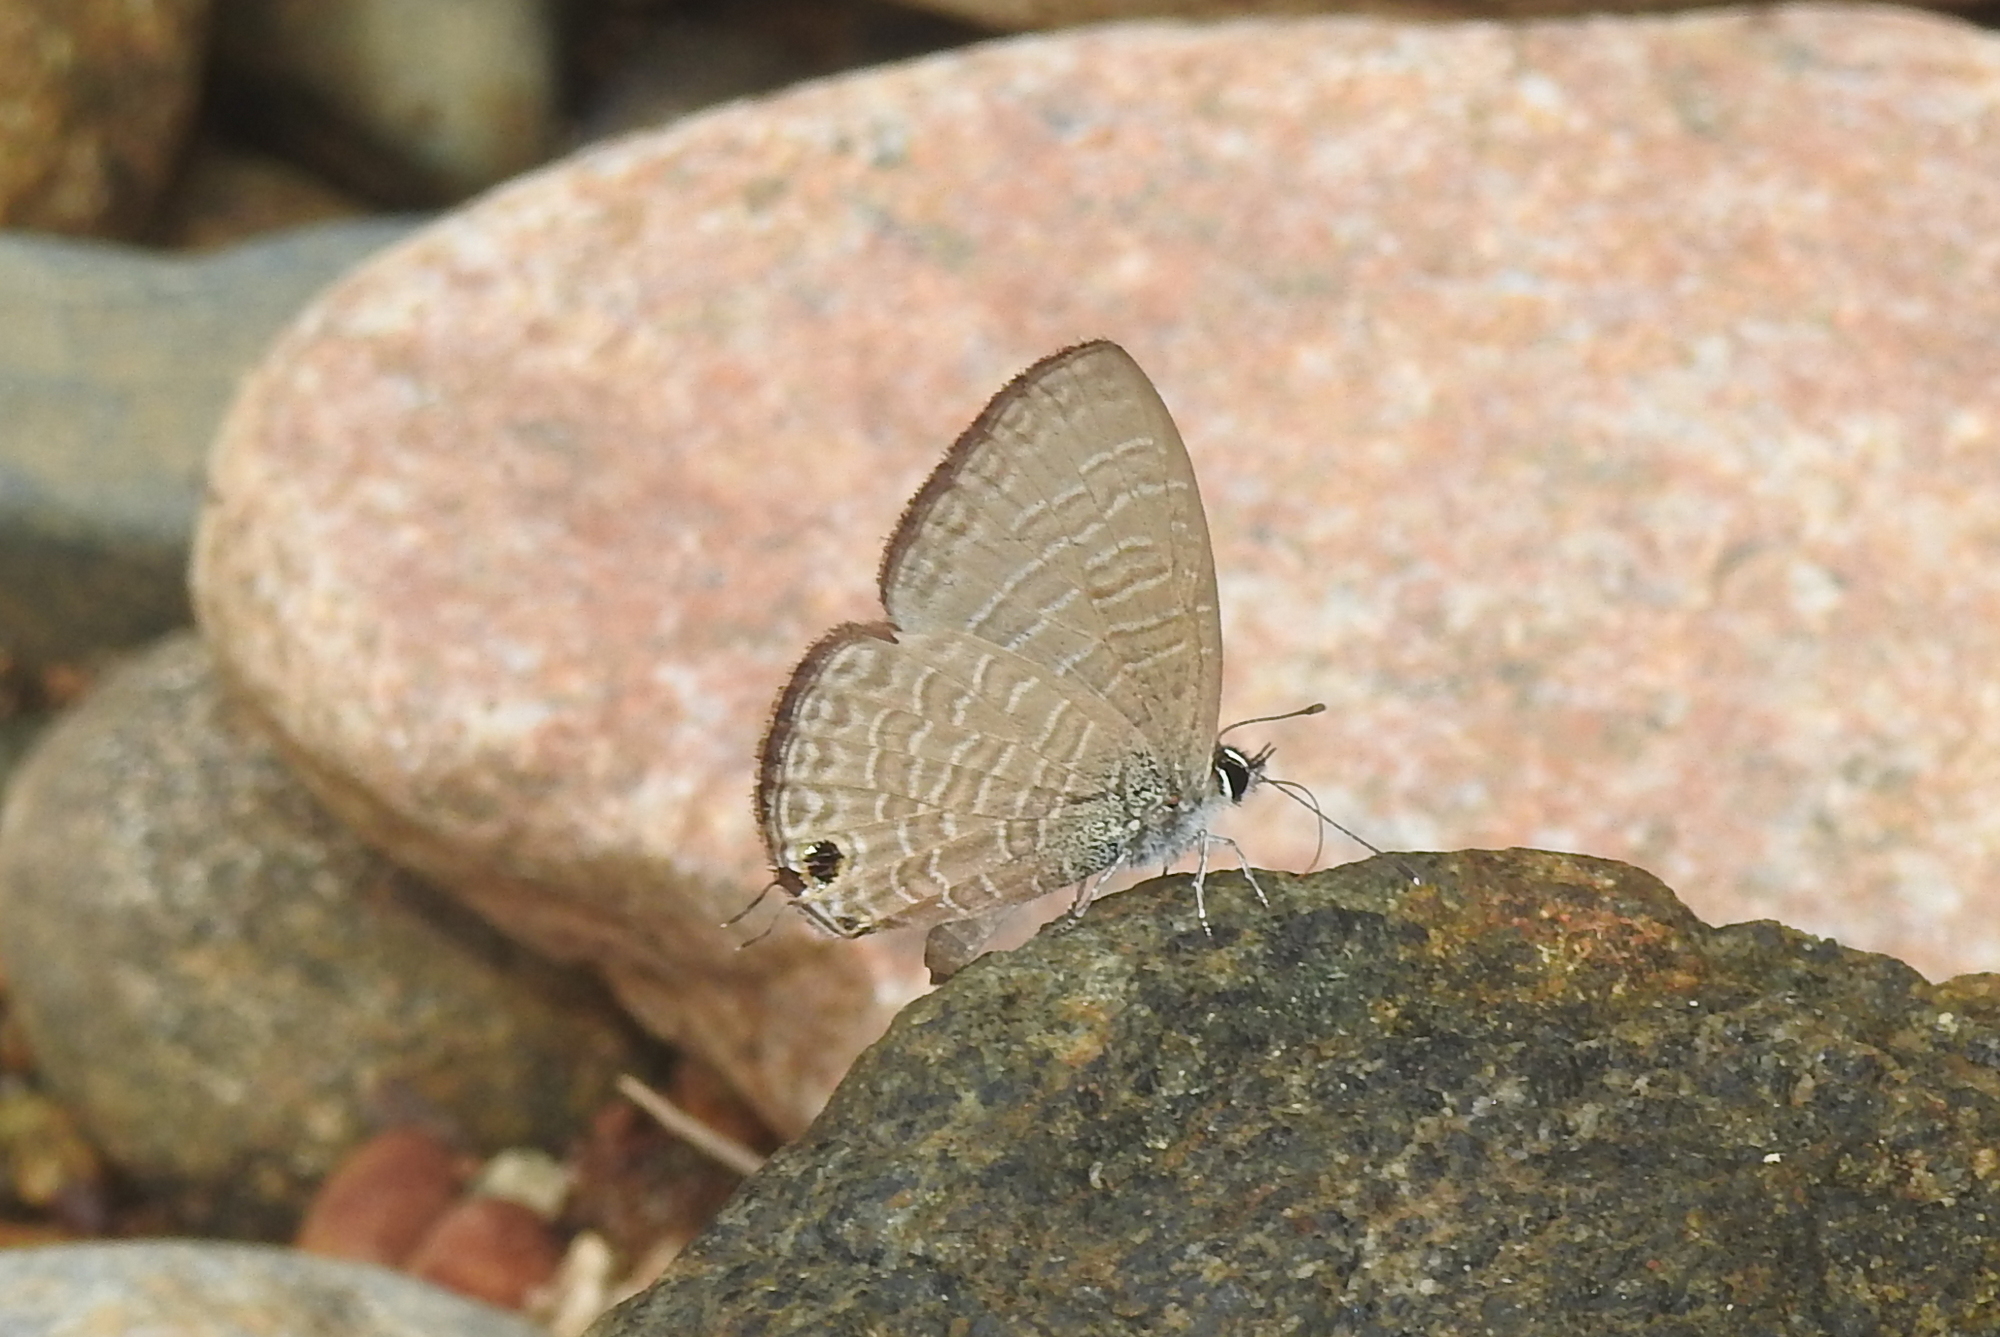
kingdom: Animalia
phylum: Arthropoda
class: Insecta
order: Lepidoptera
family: Lycaenidae
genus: Nacaduba
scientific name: Nacaduba berenice
